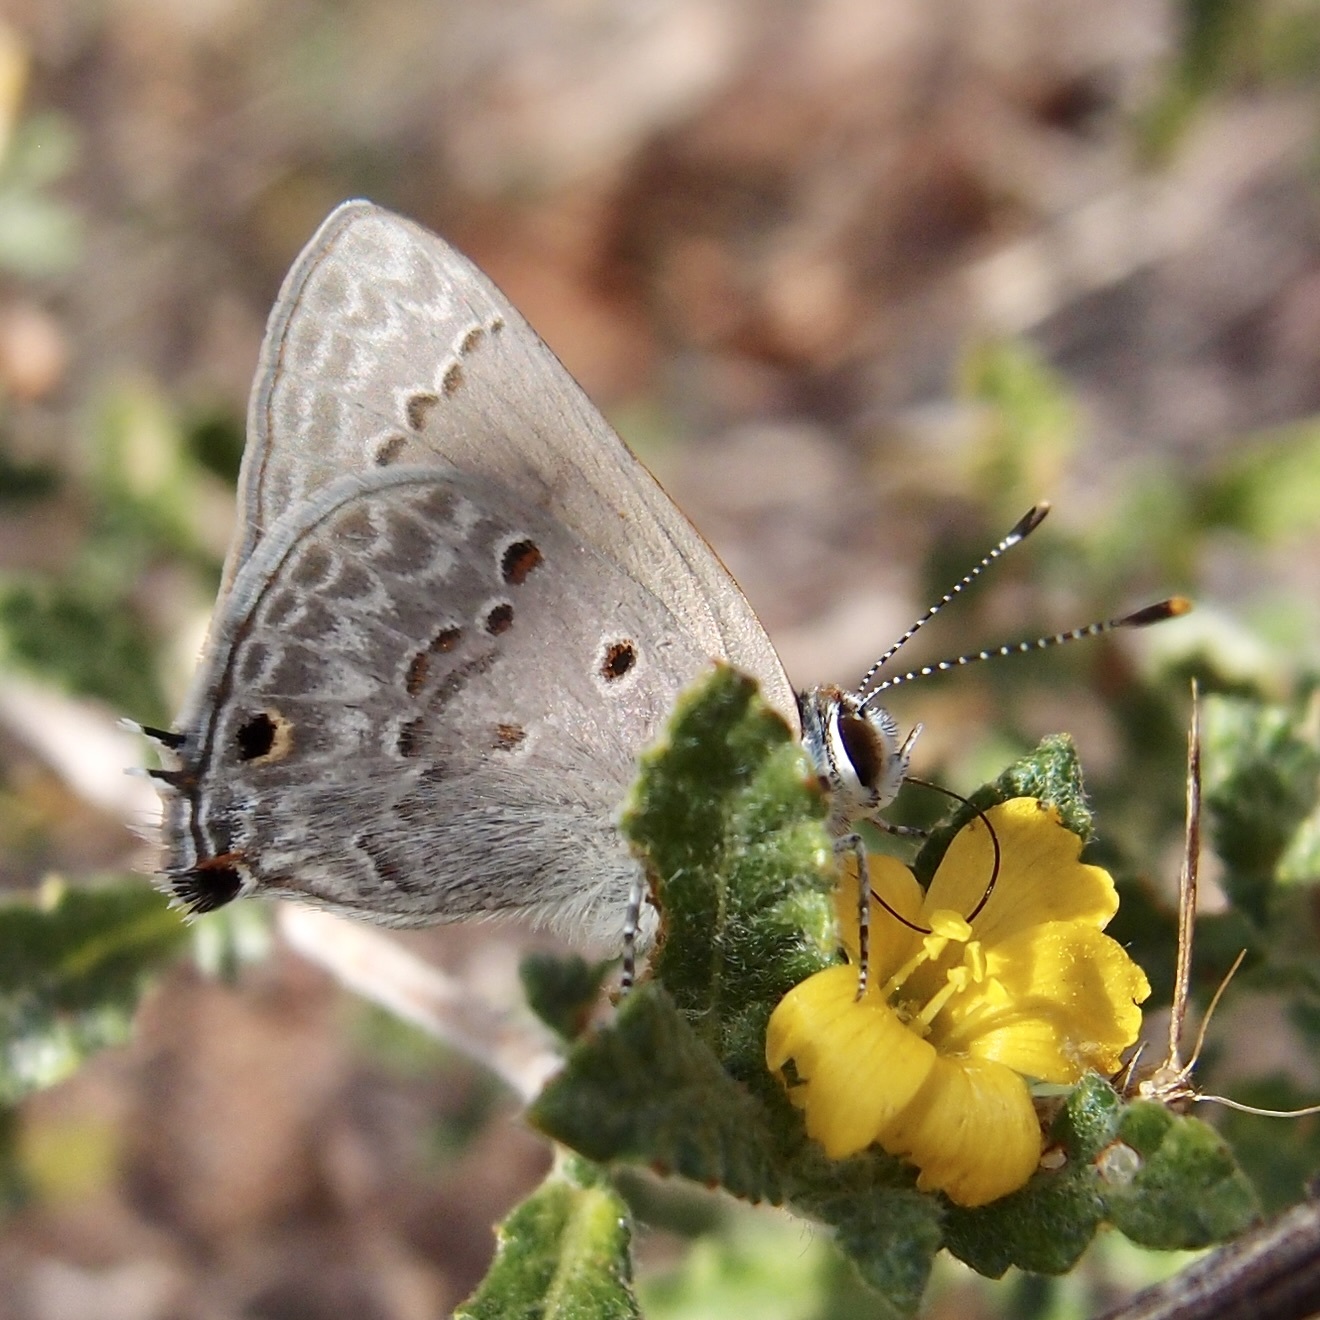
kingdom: Animalia
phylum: Arthropoda
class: Insecta
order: Lepidoptera
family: Lycaenidae
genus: Callicista
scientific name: Callicista columella
